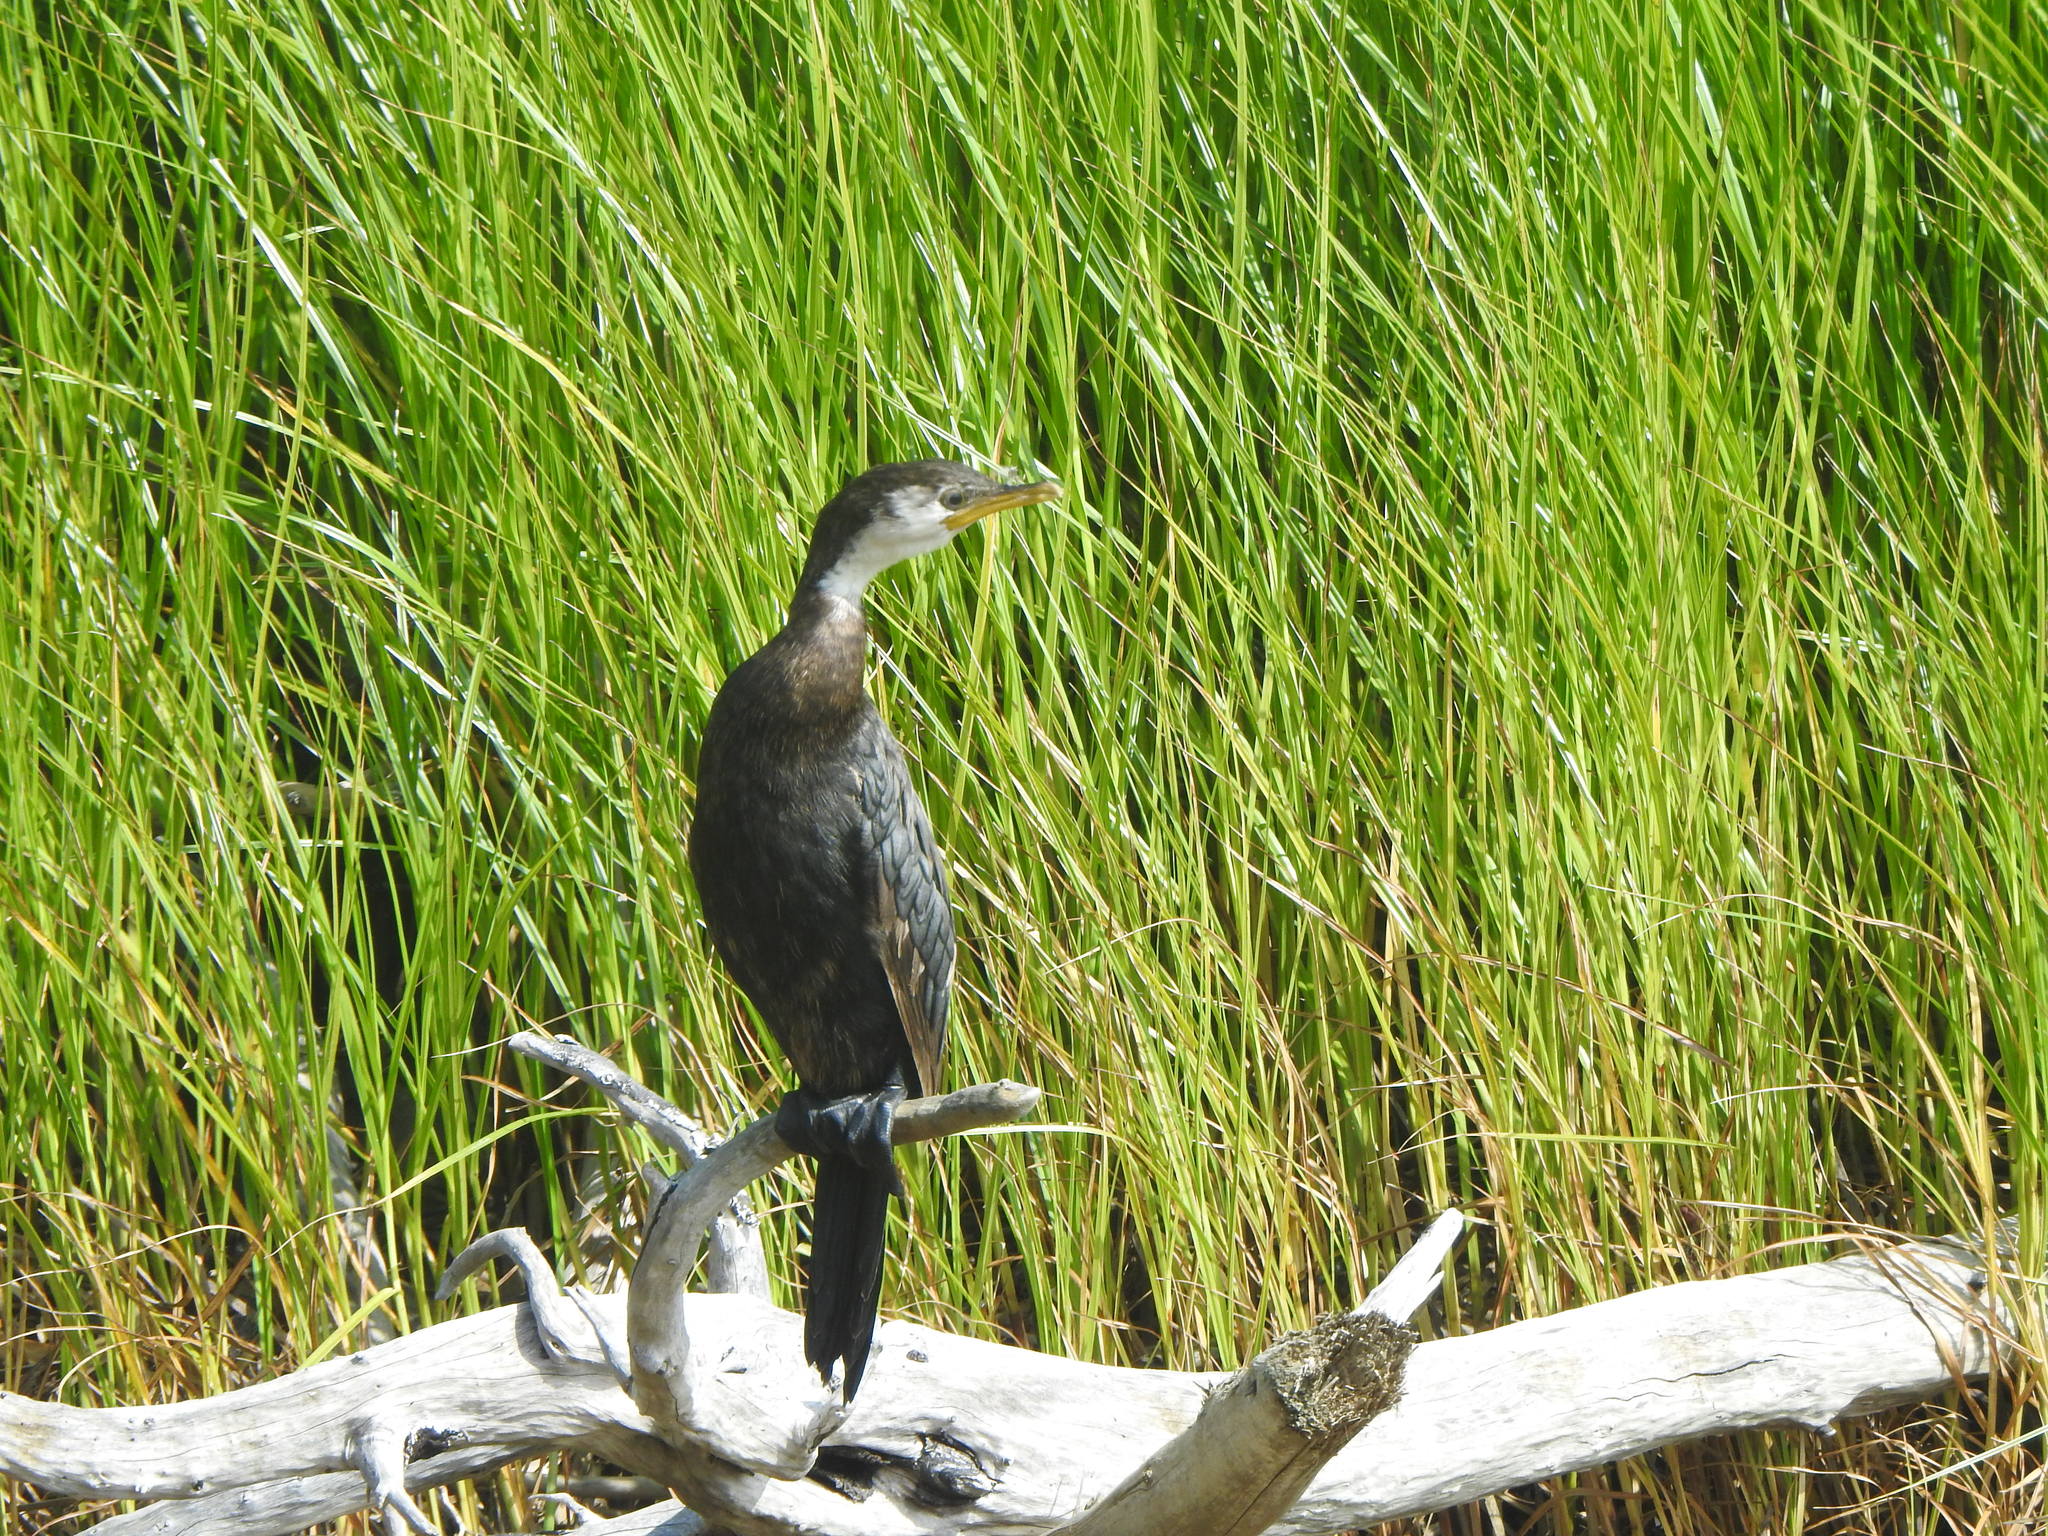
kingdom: Animalia
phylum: Chordata
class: Aves
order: Suliformes
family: Phalacrocoracidae
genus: Microcarbo
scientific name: Microcarbo melanoleucos
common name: Little pied cormorant
